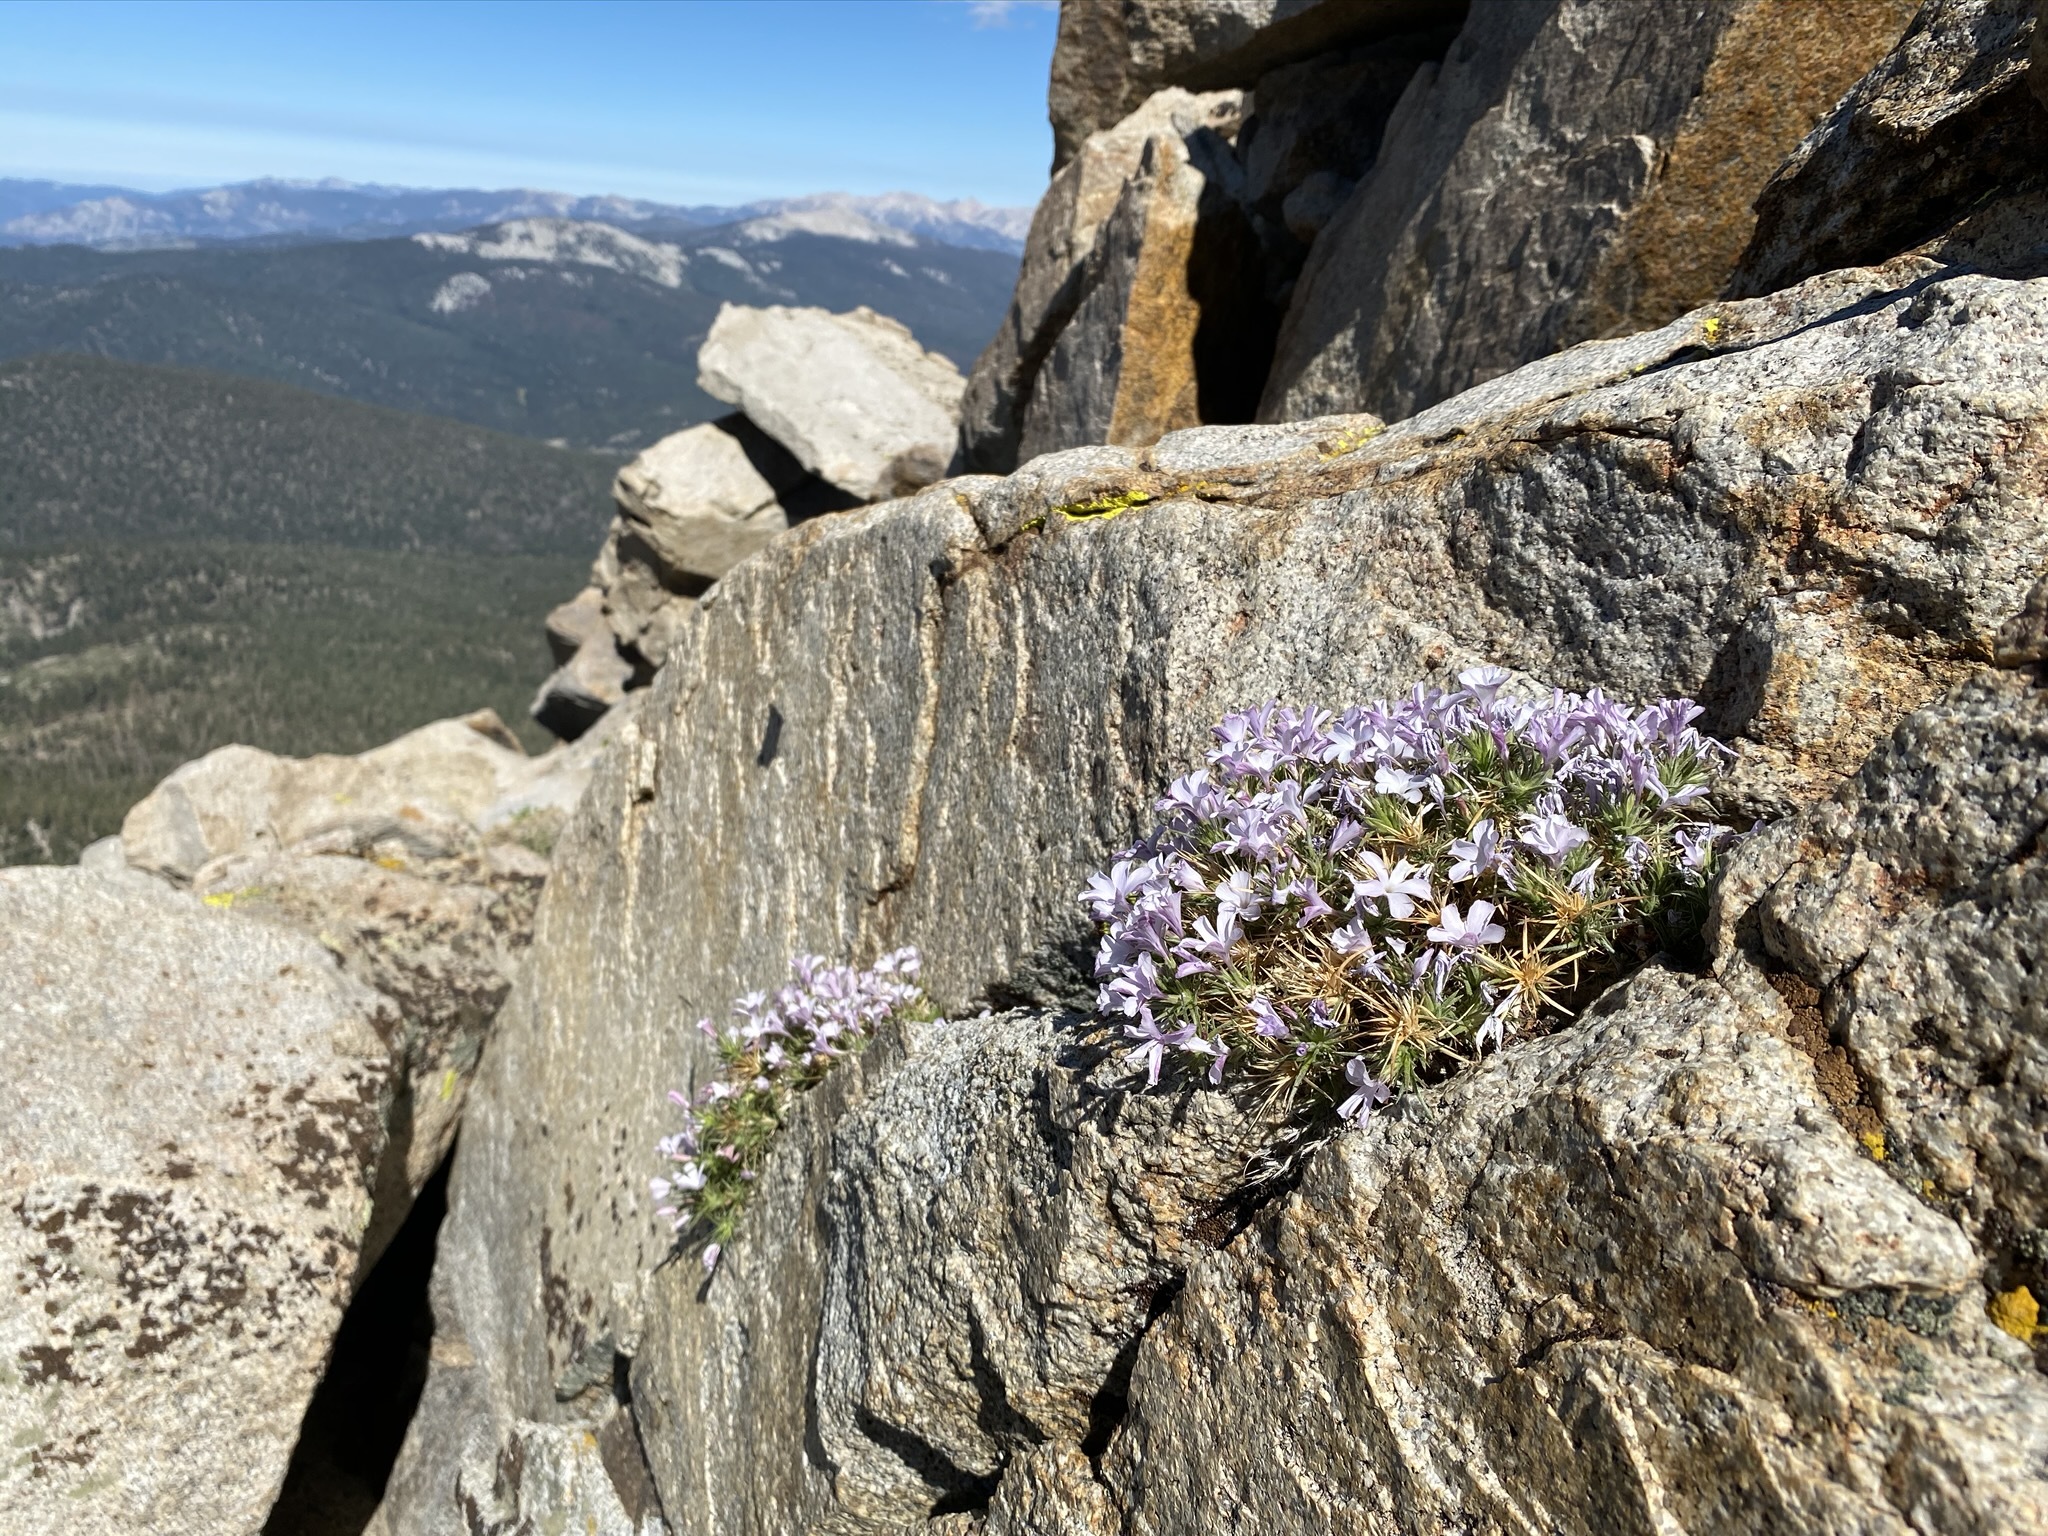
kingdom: Plantae
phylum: Tracheophyta
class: Magnoliopsida
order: Ericales
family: Polemoniaceae
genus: Linanthus
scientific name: Linanthus pungens
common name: Granite prickly phlox
